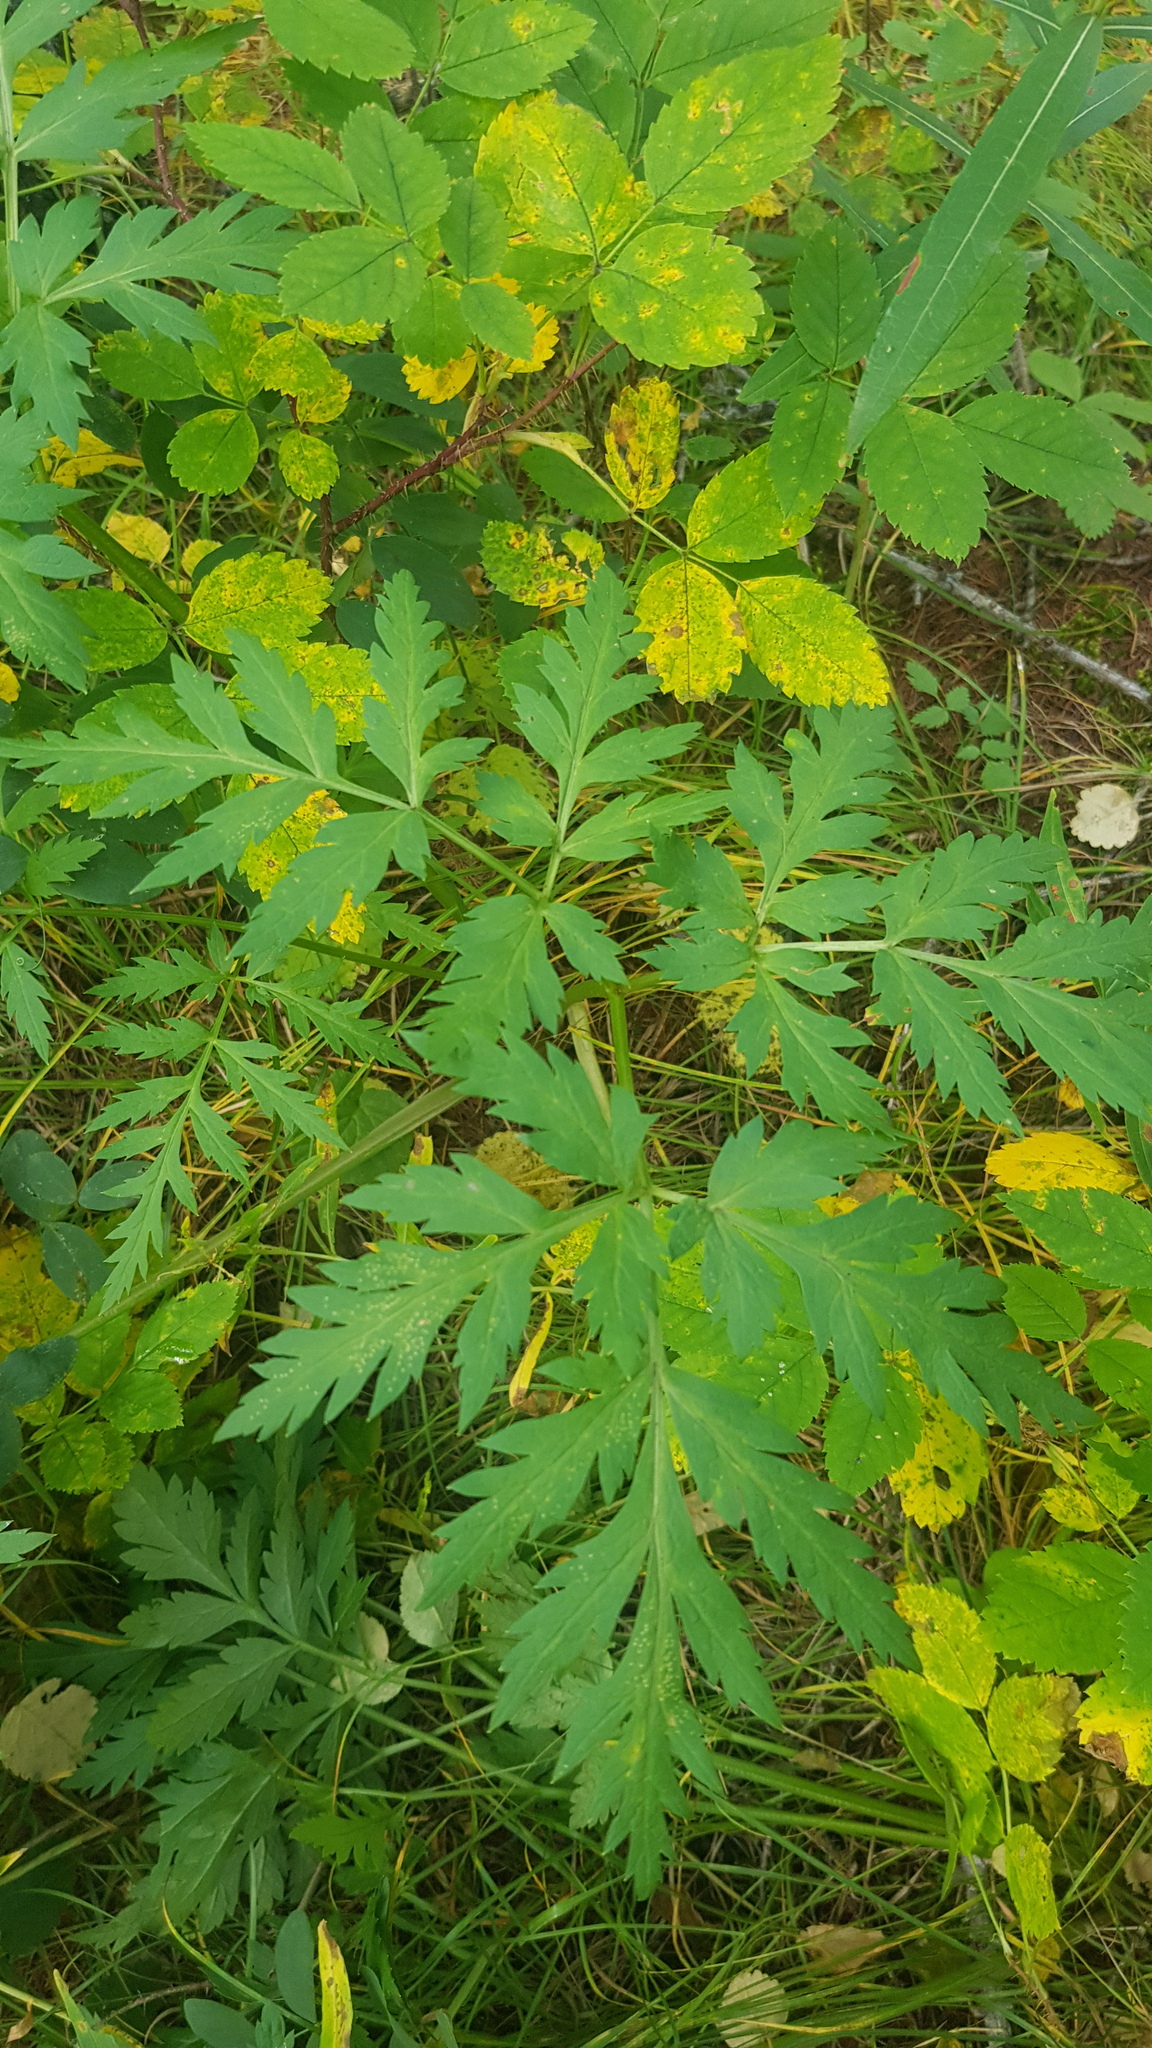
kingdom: Plantae
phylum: Tracheophyta
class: Magnoliopsida
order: Apiales
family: Apiaceae
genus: Pleurospermum
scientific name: Pleurospermum uralense
